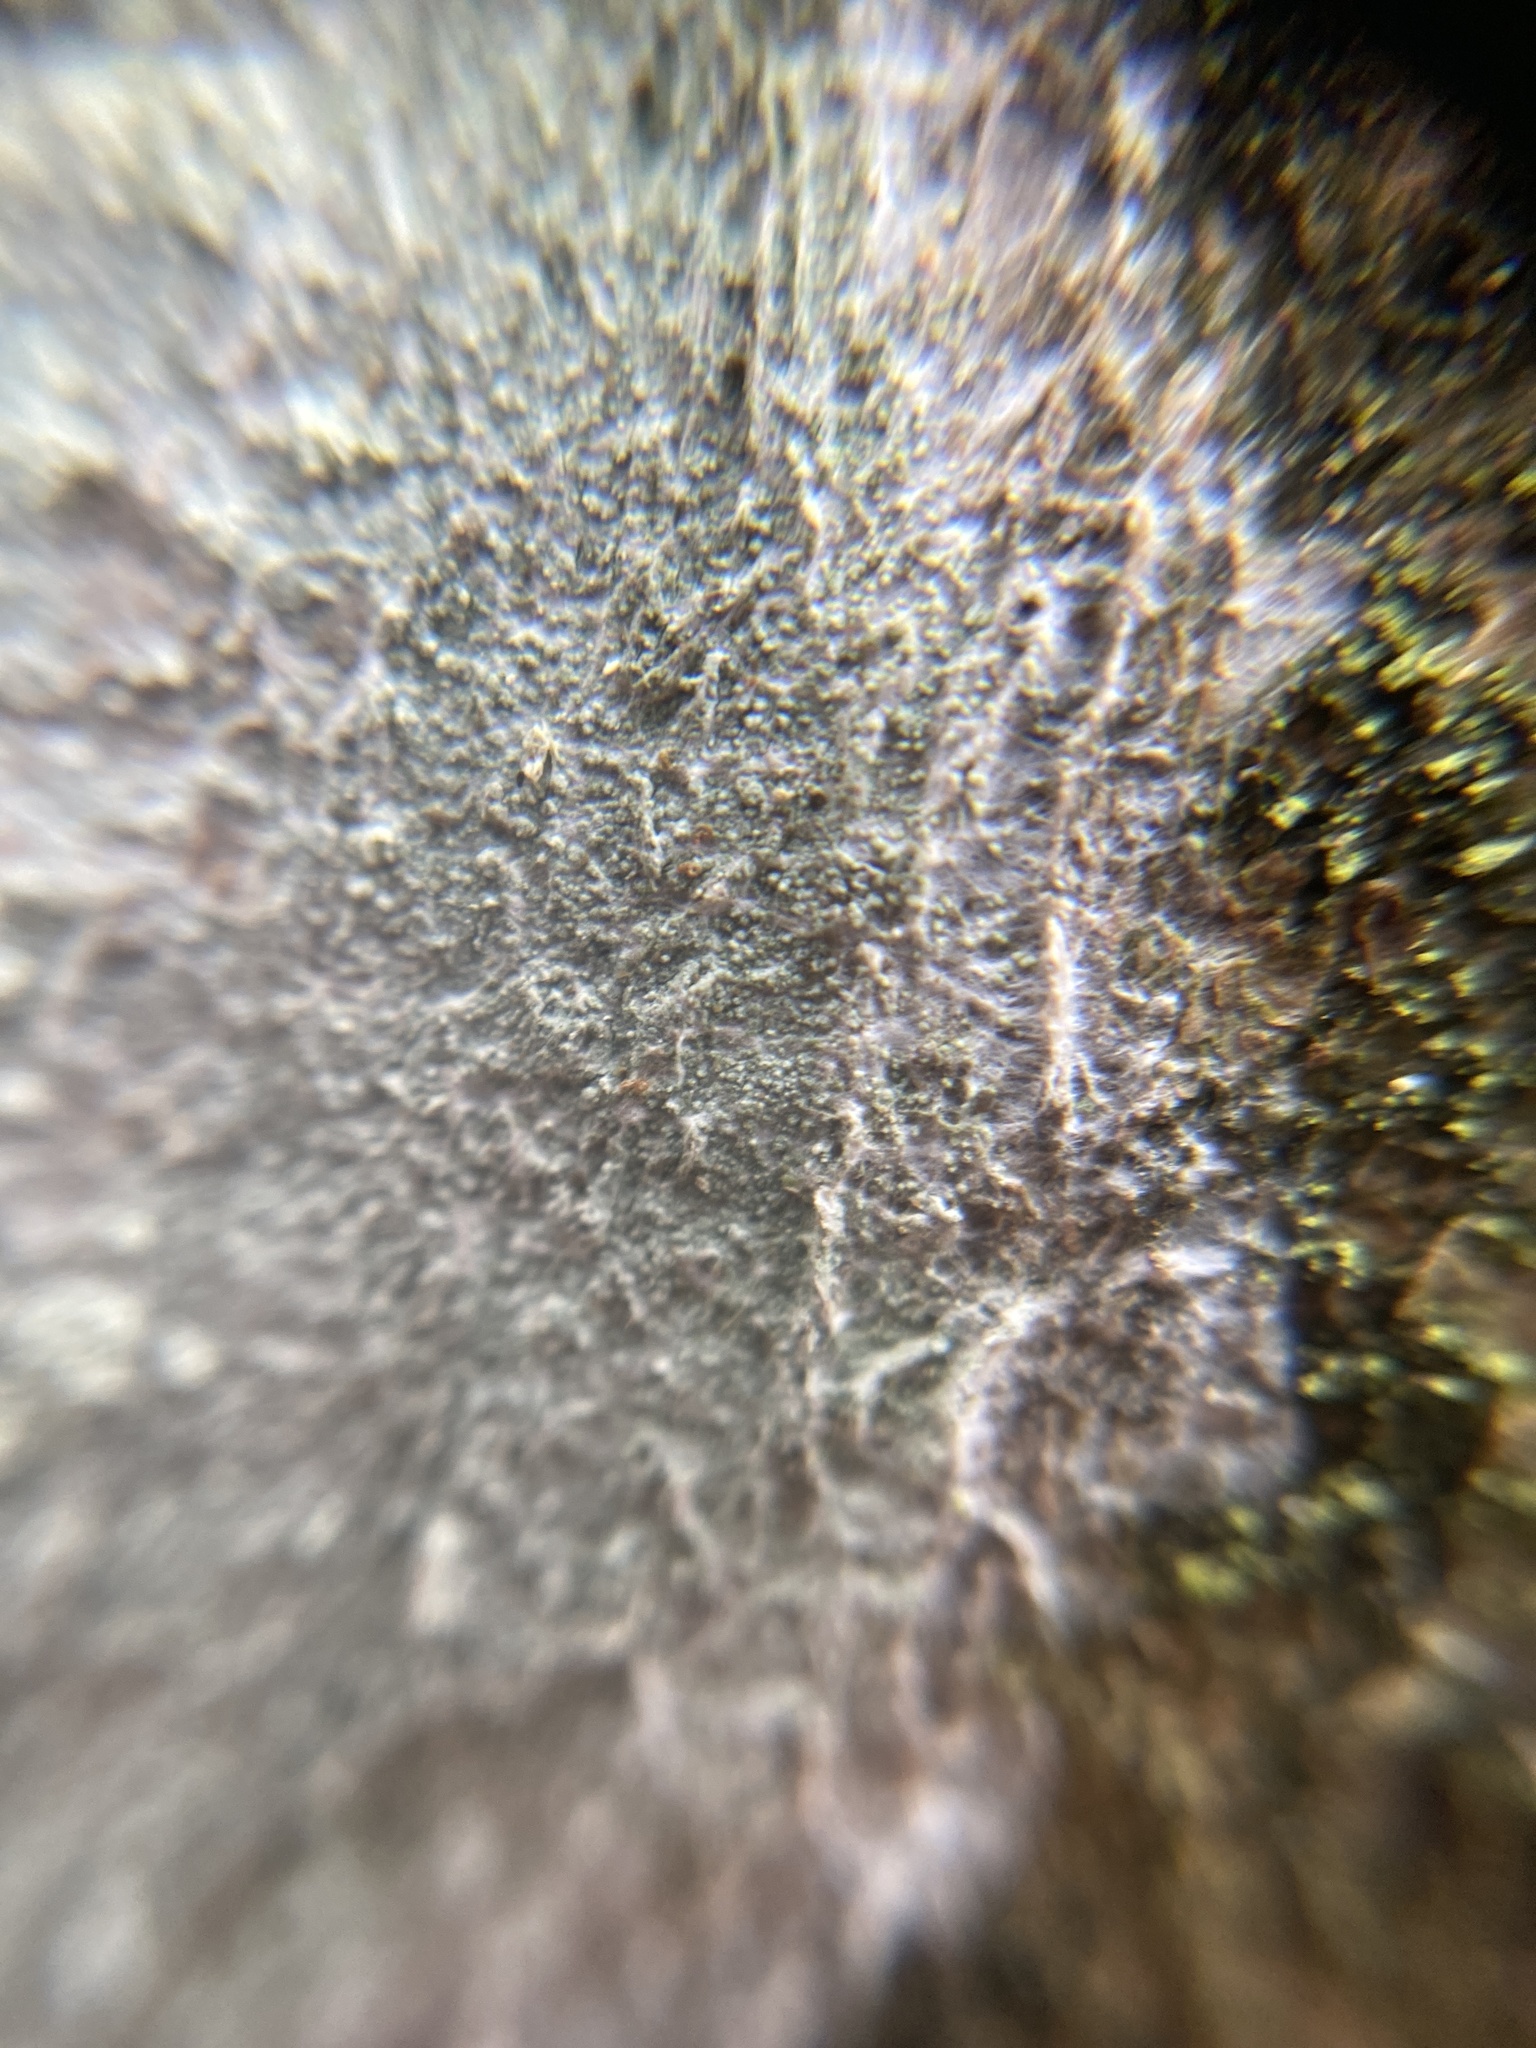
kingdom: Fungi
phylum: Ascomycota
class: Lecanoromycetes
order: Ostropales
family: Phlyctidaceae
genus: Phlyctis
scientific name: Phlyctis argena
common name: Whitewash lichen
